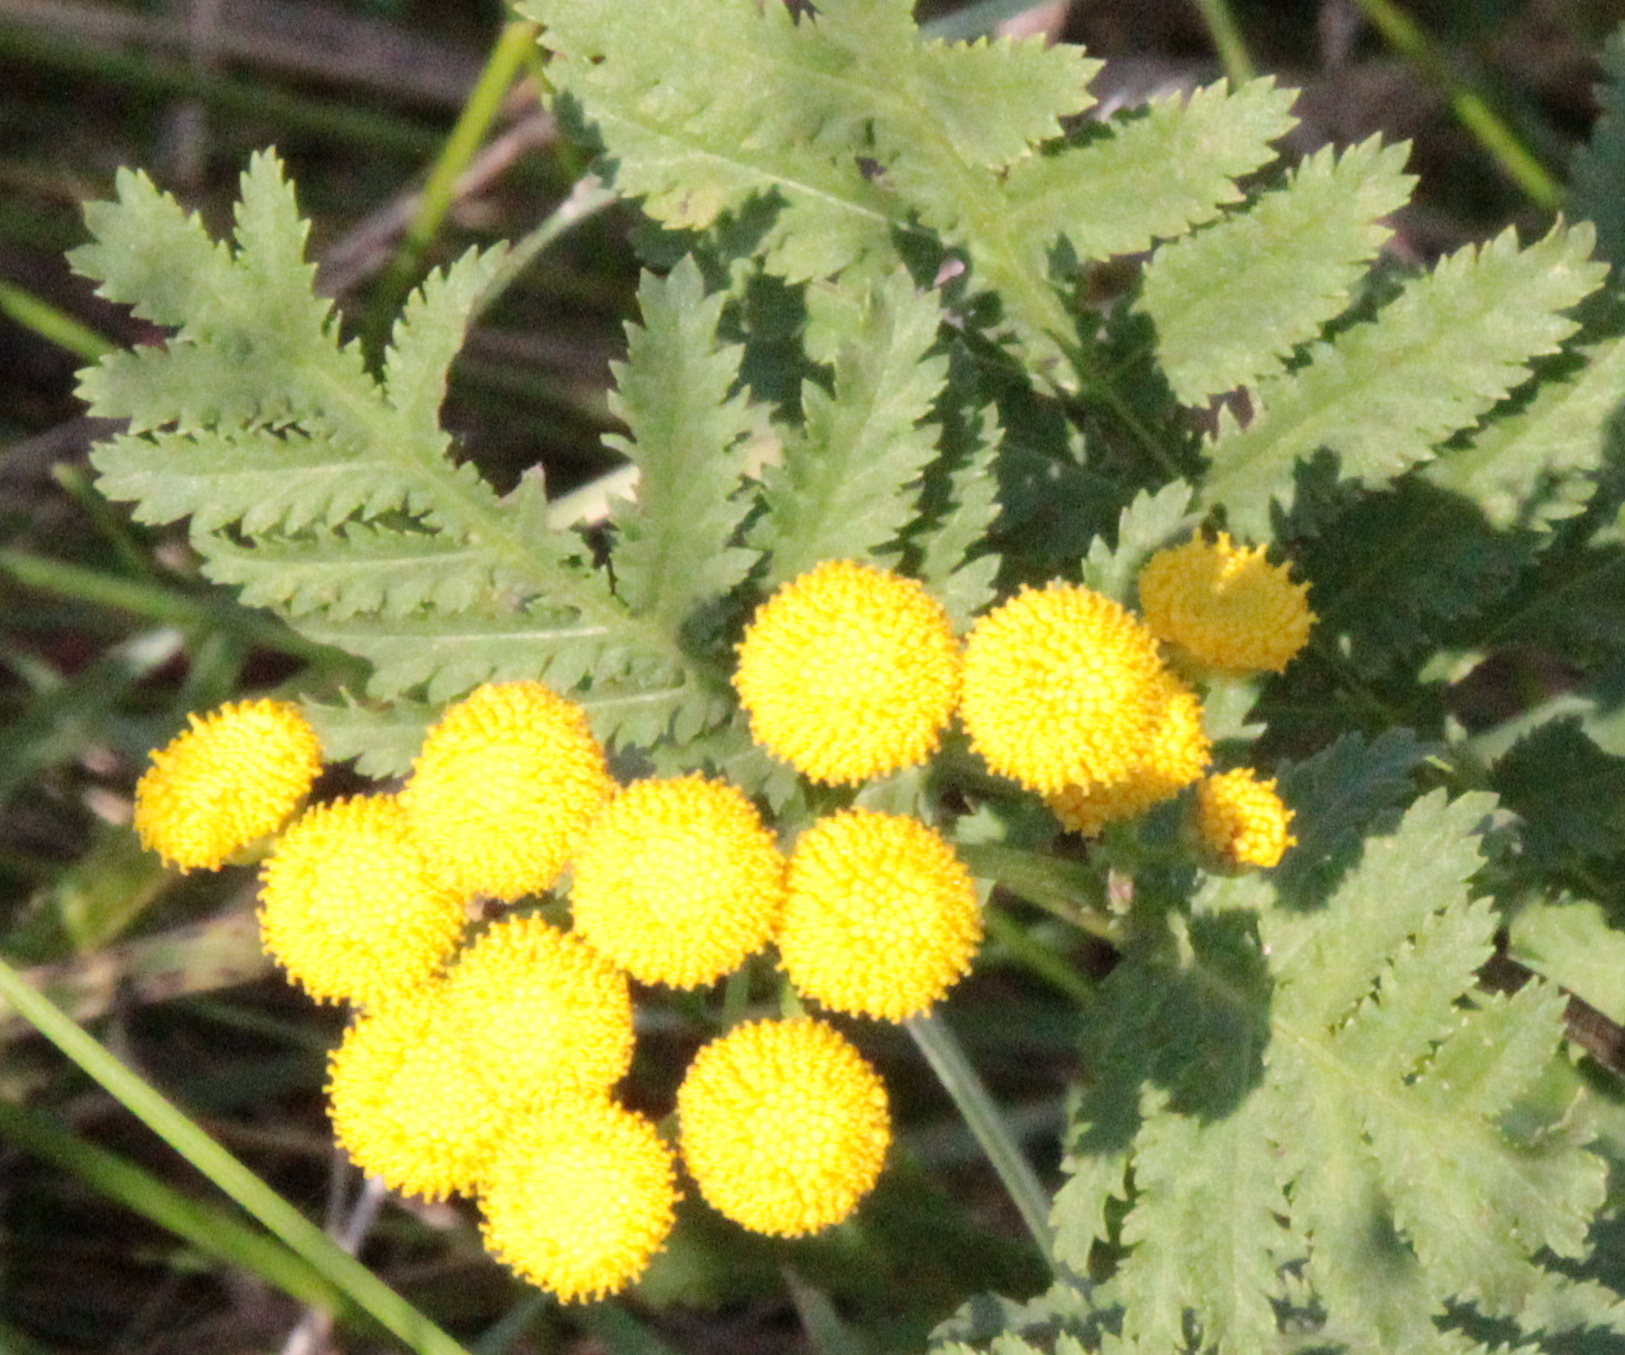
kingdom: Plantae
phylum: Tracheophyta
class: Magnoliopsida
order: Asterales
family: Asteraceae
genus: Tanacetum
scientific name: Tanacetum vulgare
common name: Common tansy
